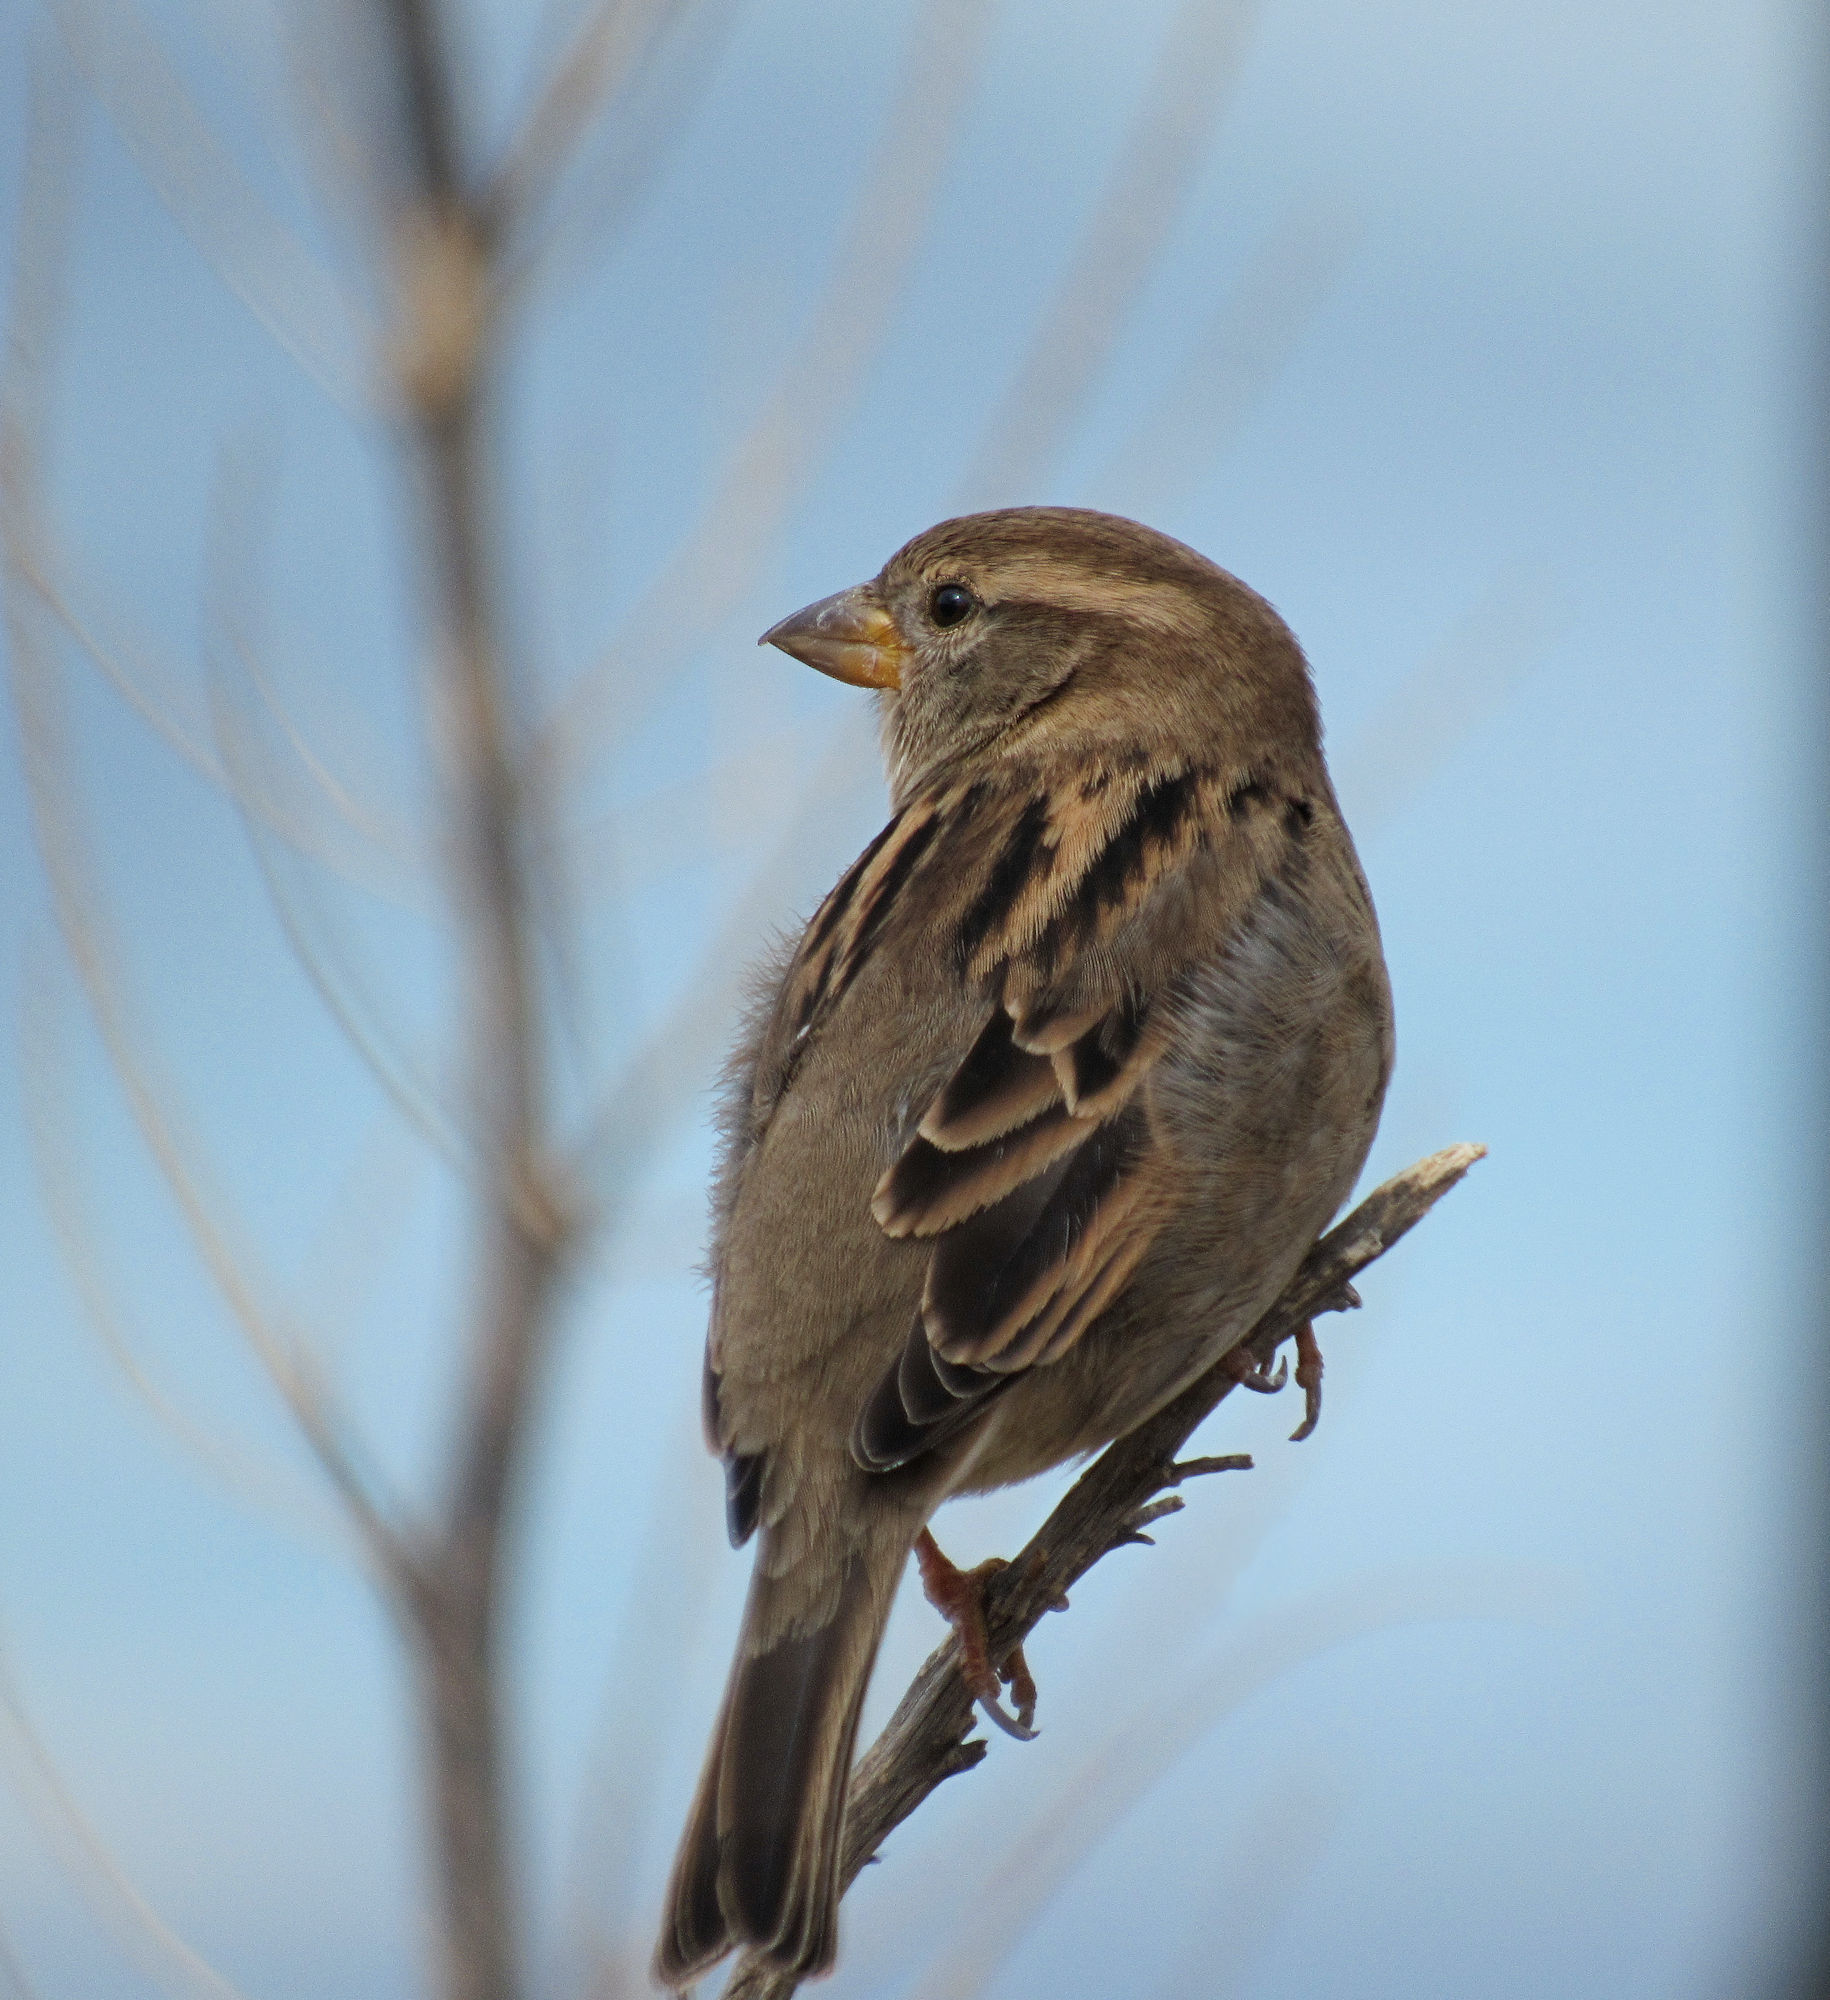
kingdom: Animalia
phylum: Chordata
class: Aves
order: Passeriformes
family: Passeridae
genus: Passer
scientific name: Passer domesticus
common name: House sparrow
